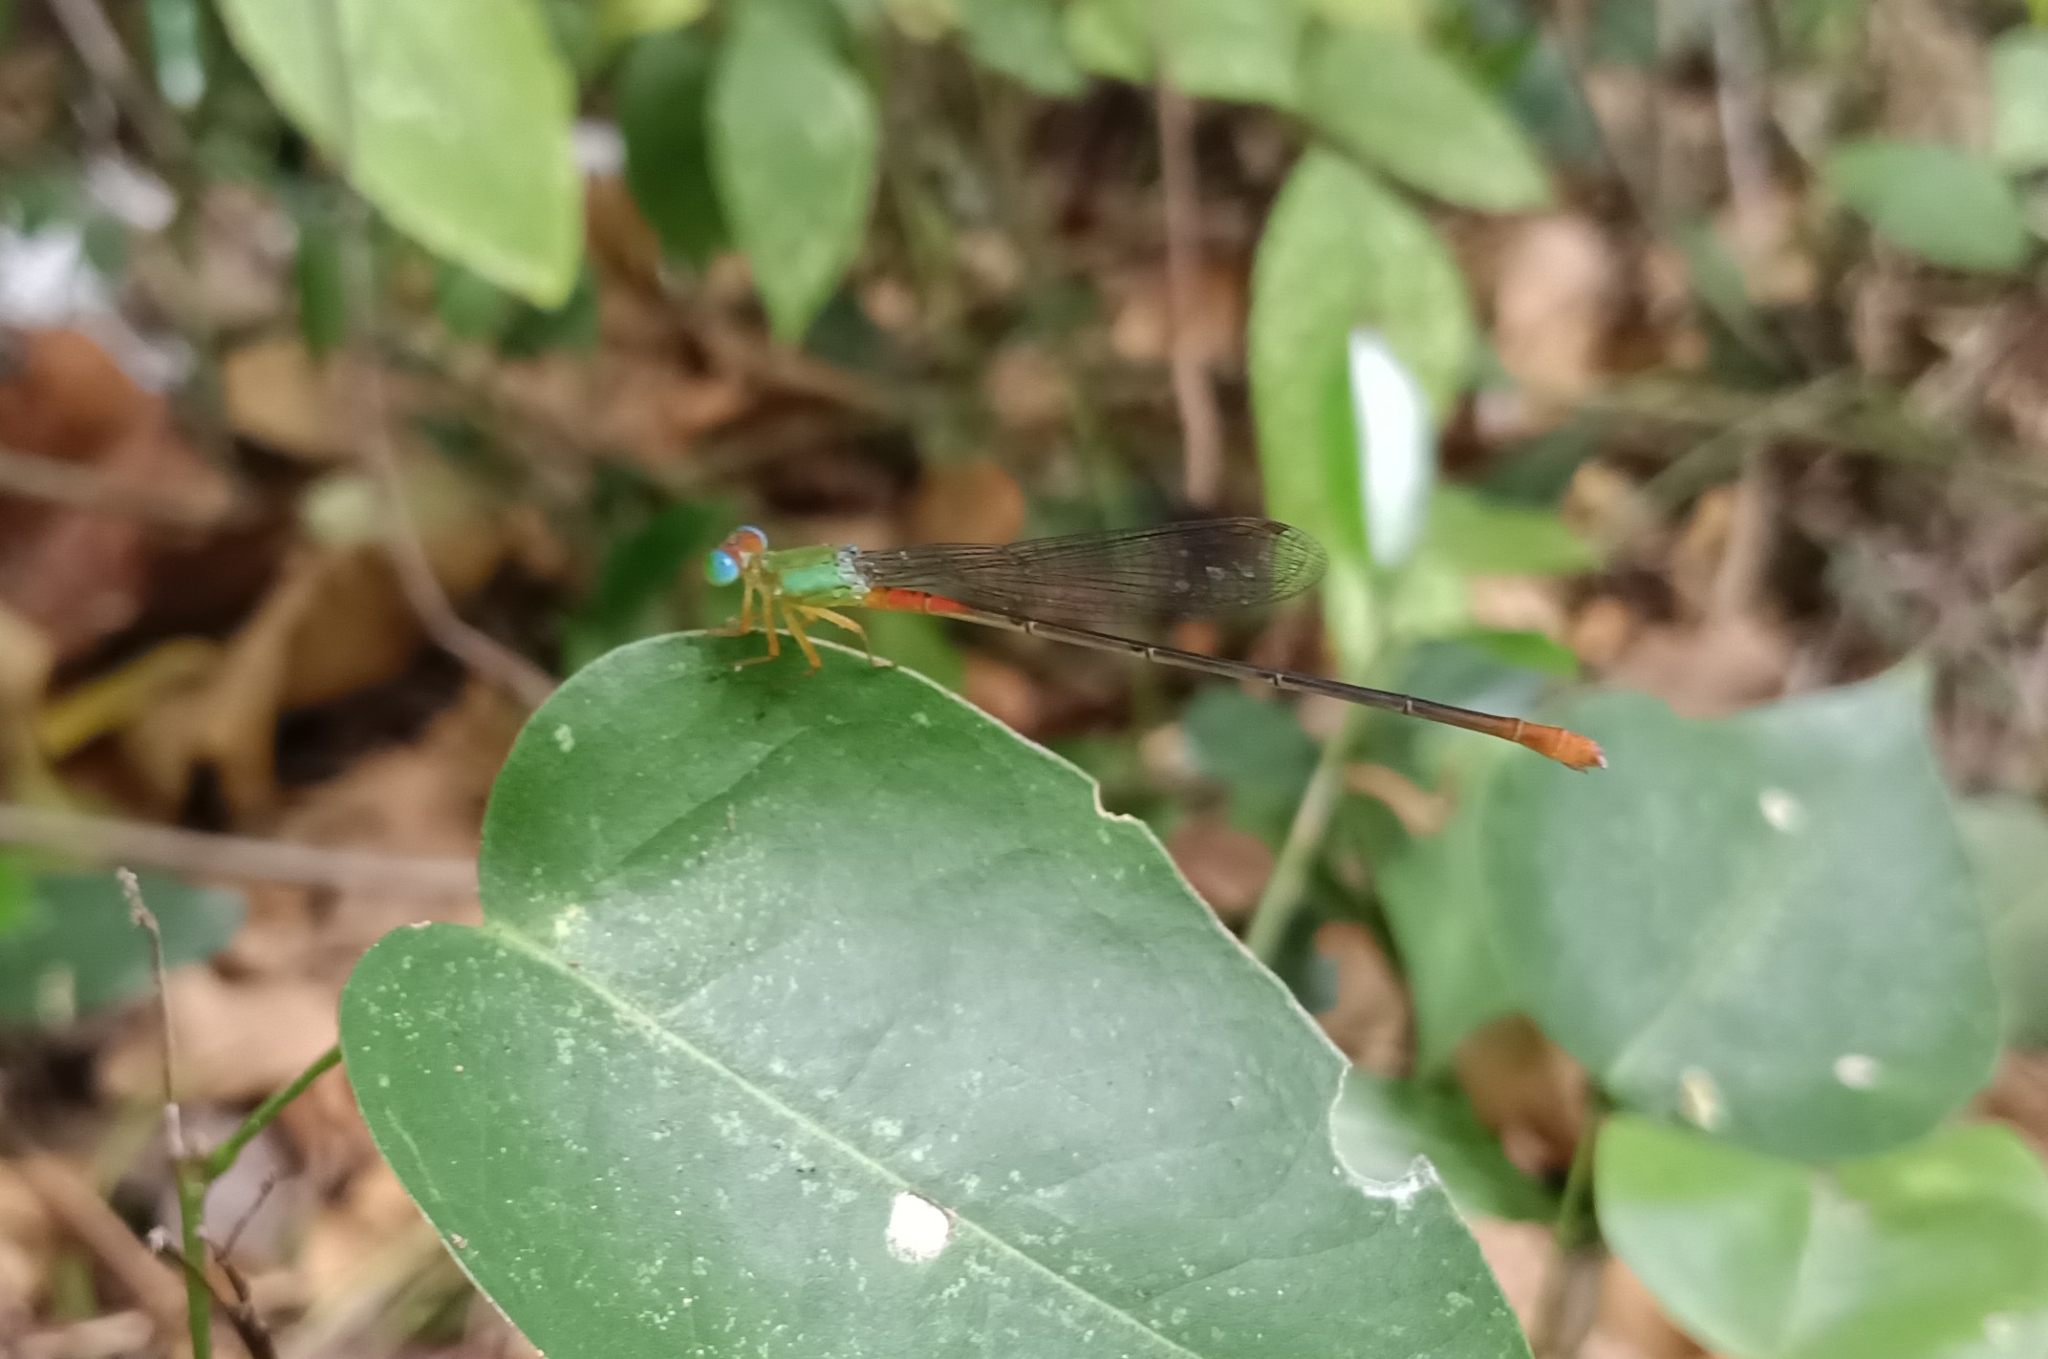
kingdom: Animalia
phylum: Arthropoda
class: Insecta
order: Odonata
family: Coenagrionidae
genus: Ceriagrion
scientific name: Ceriagrion cerinorubellum
